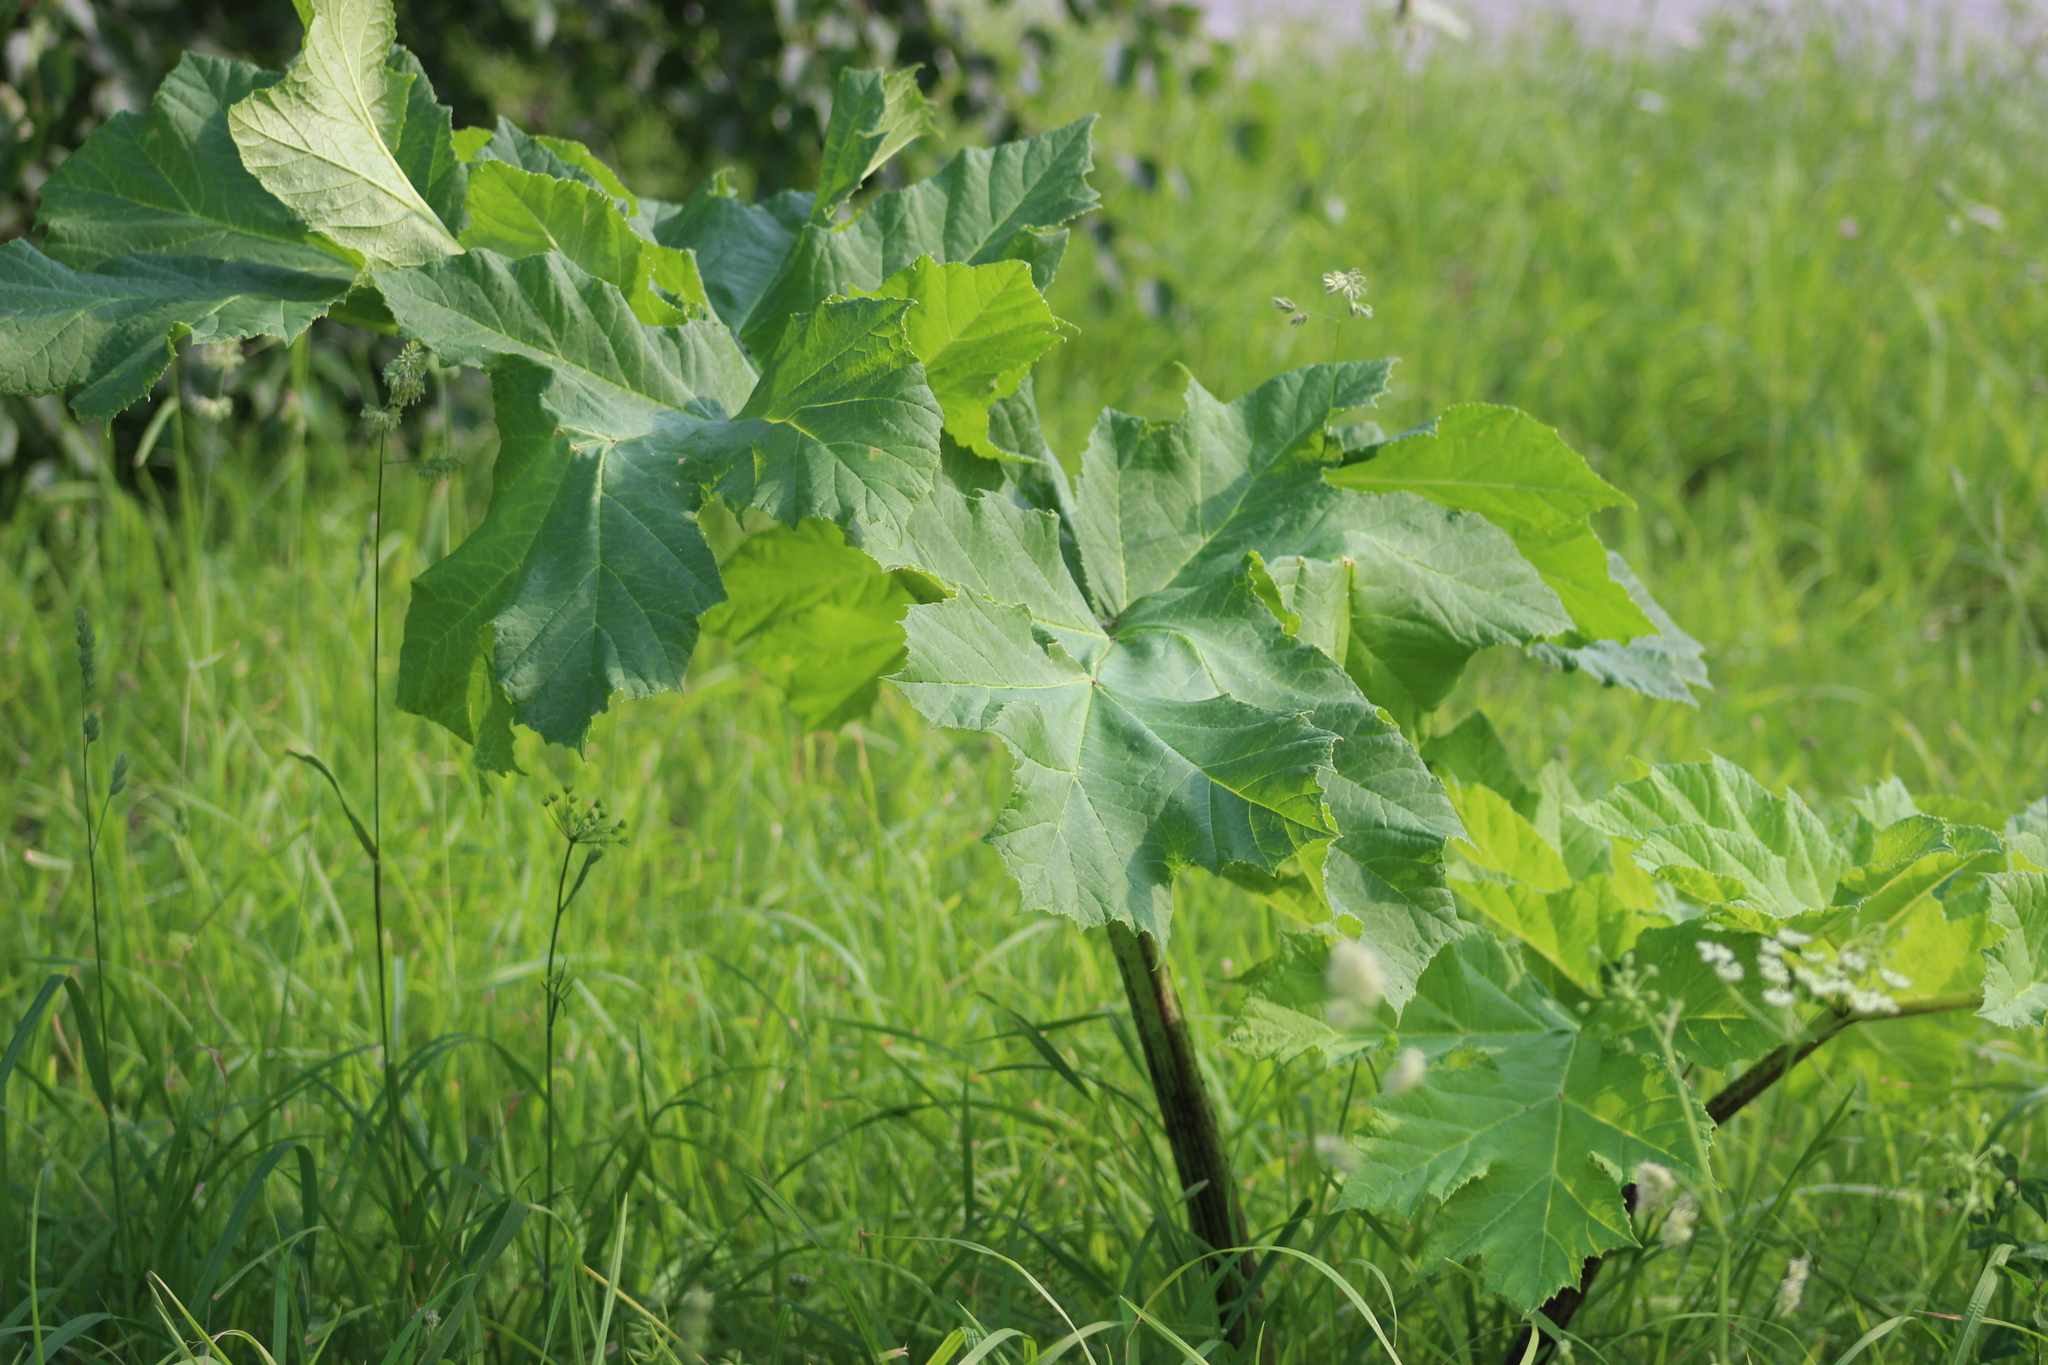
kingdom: Plantae
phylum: Tracheophyta
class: Magnoliopsida
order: Apiales
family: Apiaceae
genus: Heracleum
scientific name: Heracleum sosnowskyi
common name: Sosnowsky's hogweed
